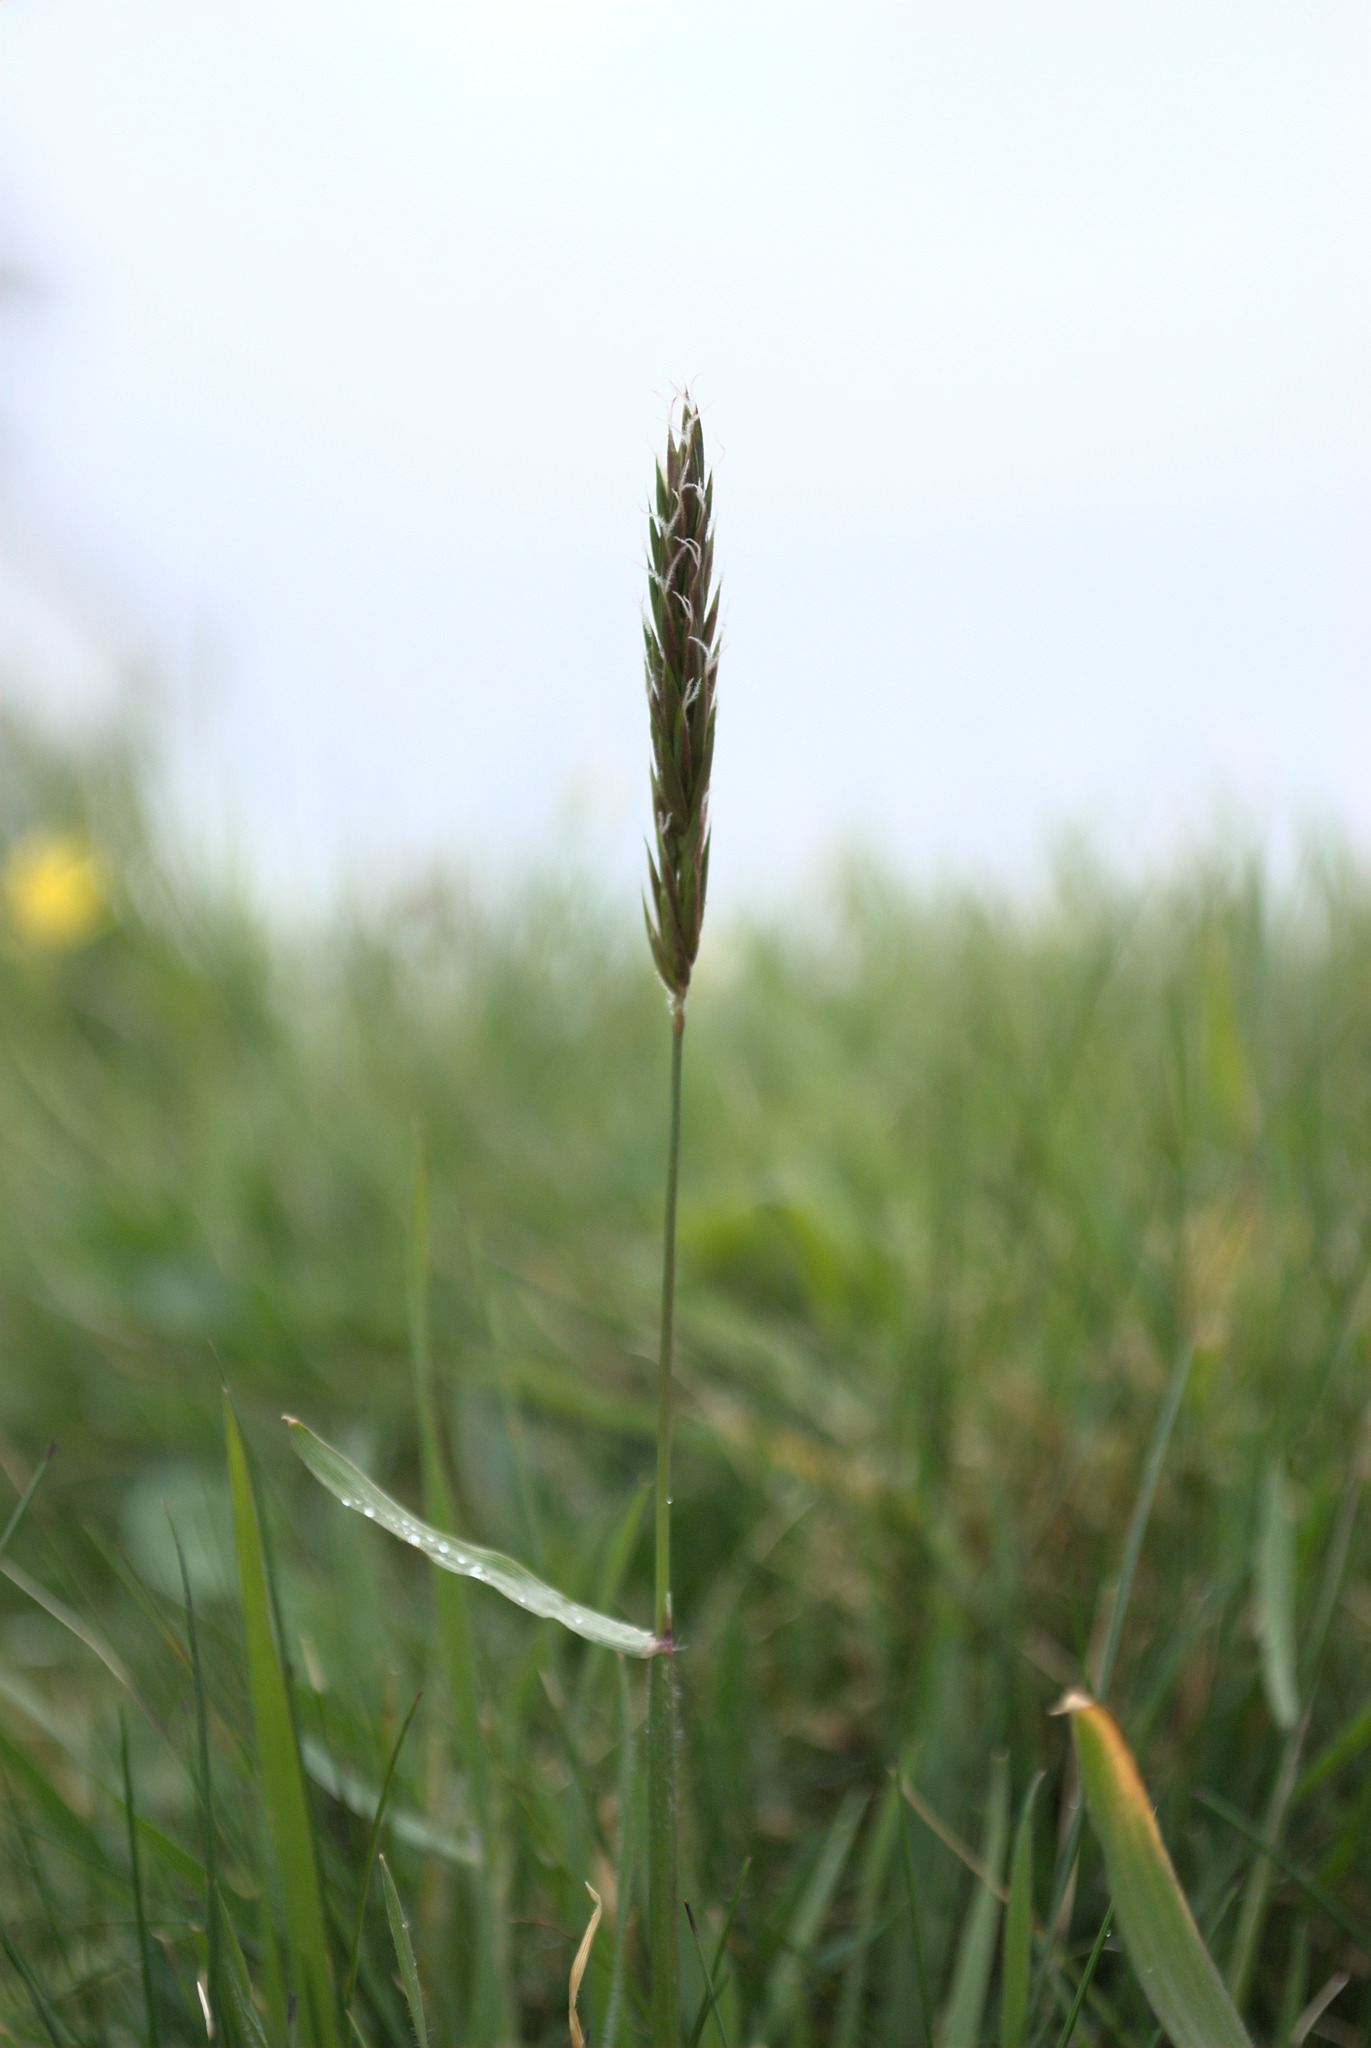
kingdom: Plantae
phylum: Tracheophyta
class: Liliopsida
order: Poales
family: Poaceae
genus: Anthoxanthum
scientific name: Anthoxanthum odoratum
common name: Sweet vernalgrass
